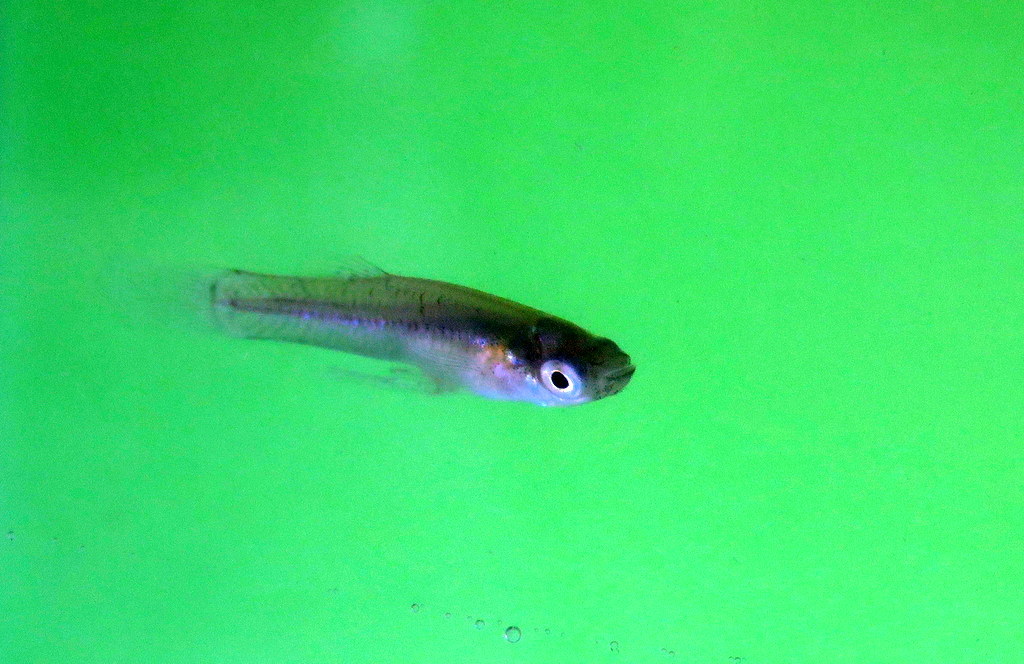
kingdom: Animalia
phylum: Chordata
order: Cyprinodontiformes
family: Poeciliidae
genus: Gambusia
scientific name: Gambusia affinis
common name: Mosquitofish
